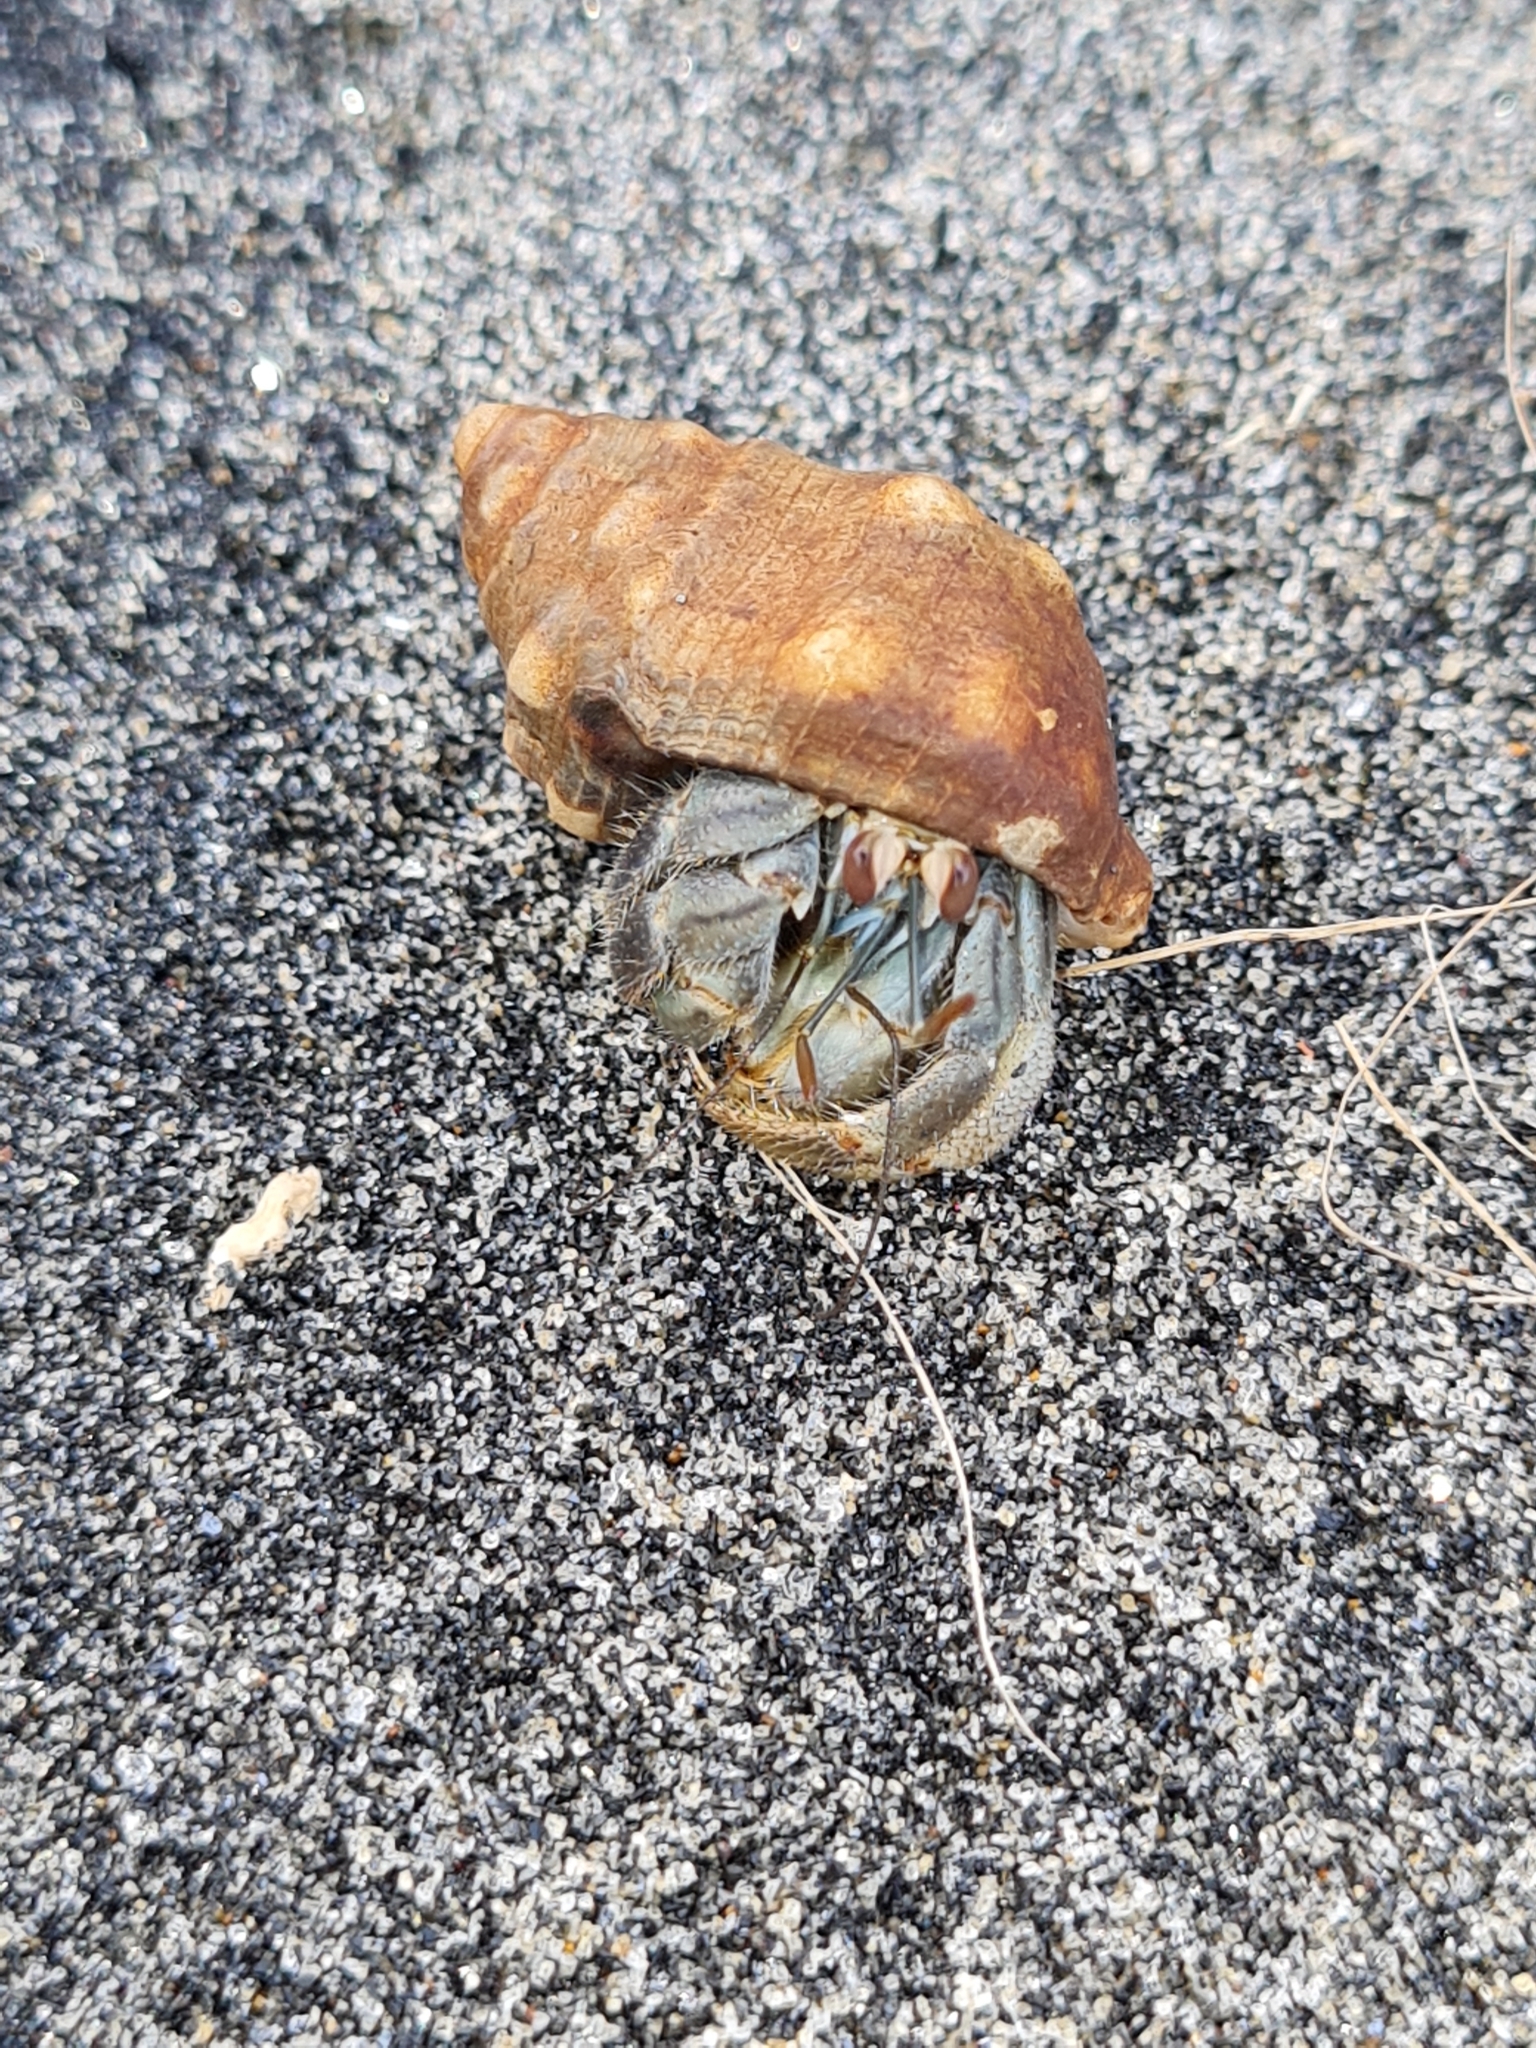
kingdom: Animalia
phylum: Arthropoda
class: Malacostraca
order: Decapoda
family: Coenobitidae
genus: Coenobita
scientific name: Coenobita compressus
